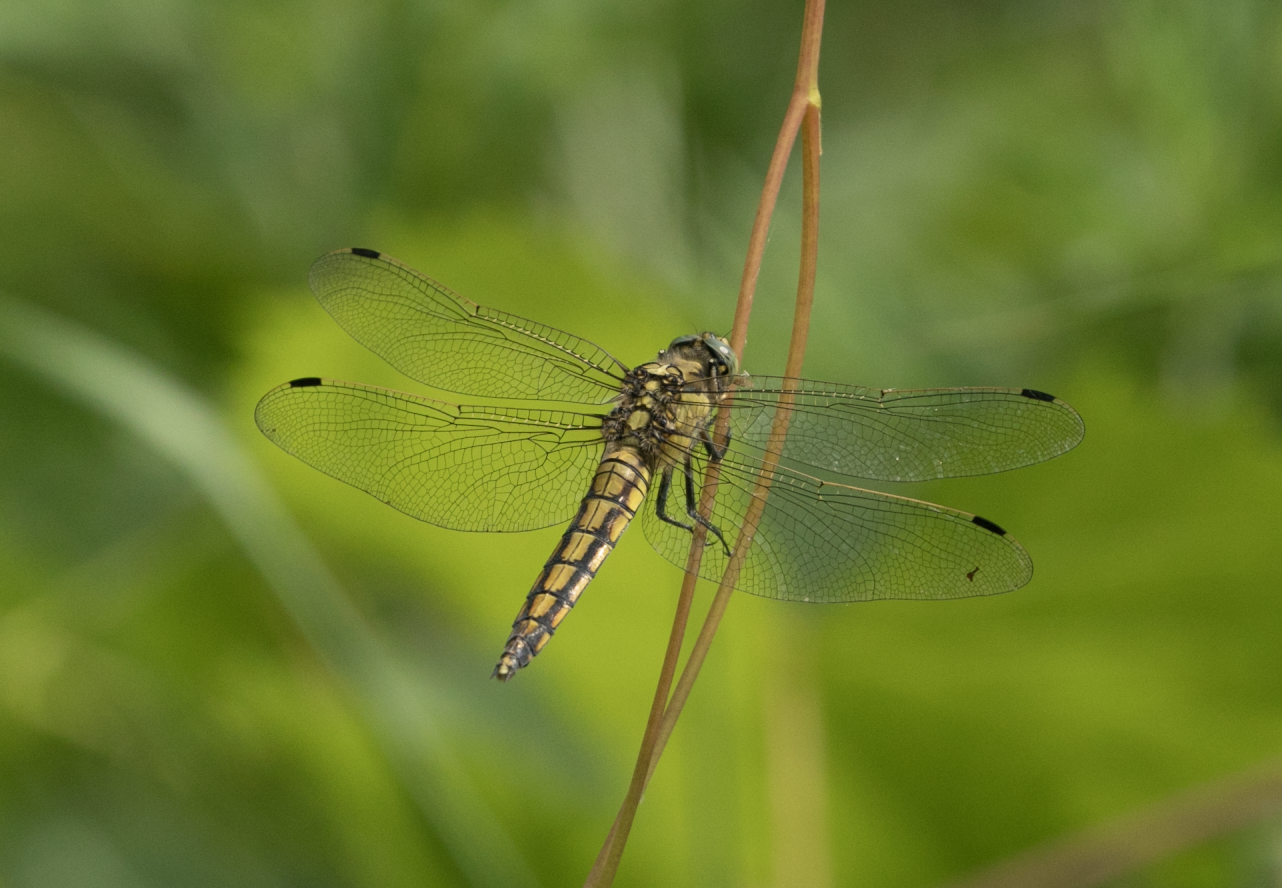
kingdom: Animalia
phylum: Arthropoda
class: Insecta
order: Odonata
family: Libellulidae
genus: Orthetrum
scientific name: Orthetrum cancellatum
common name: Black-tailed skimmer
